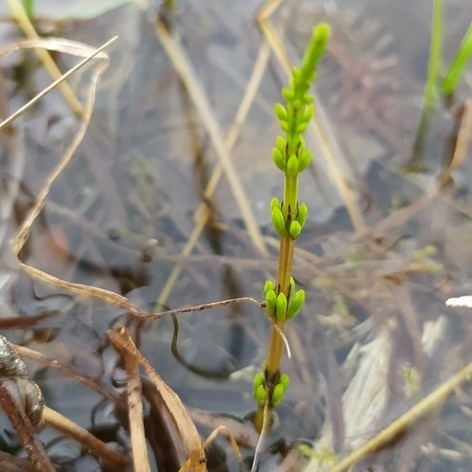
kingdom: Plantae
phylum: Tracheophyta
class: Polypodiopsida
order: Equisetales
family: Equisetaceae
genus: Equisetum
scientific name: Equisetum arvense
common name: Field horsetail
